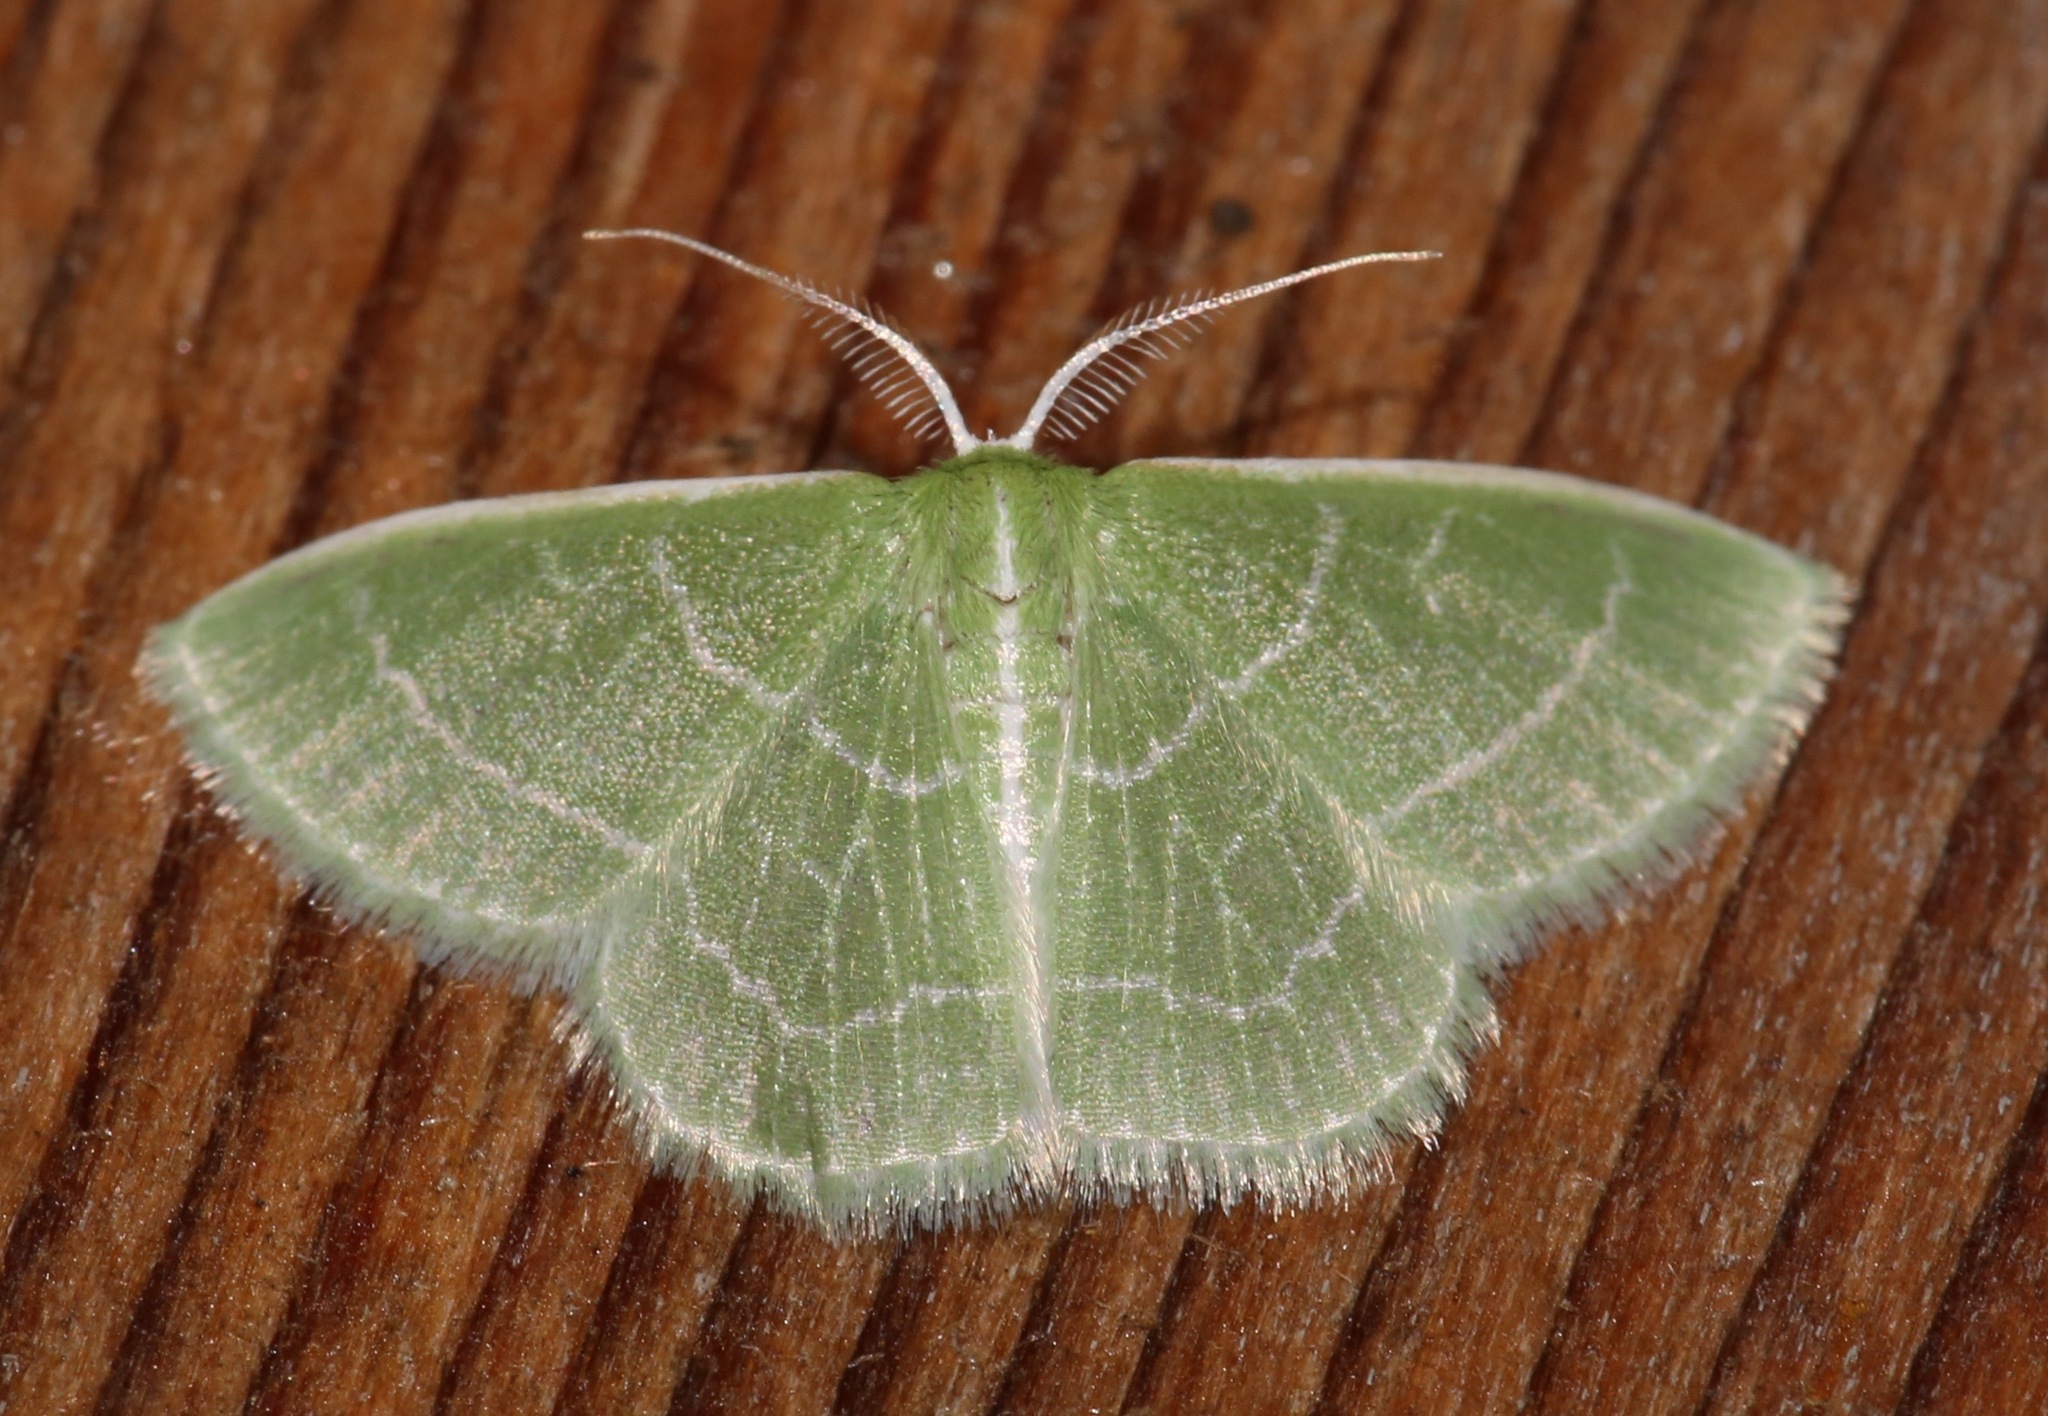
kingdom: Animalia
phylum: Arthropoda
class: Insecta
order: Lepidoptera
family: Geometridae
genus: Synchlora
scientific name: Synchlora aerata
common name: Wavy-lined emerald
